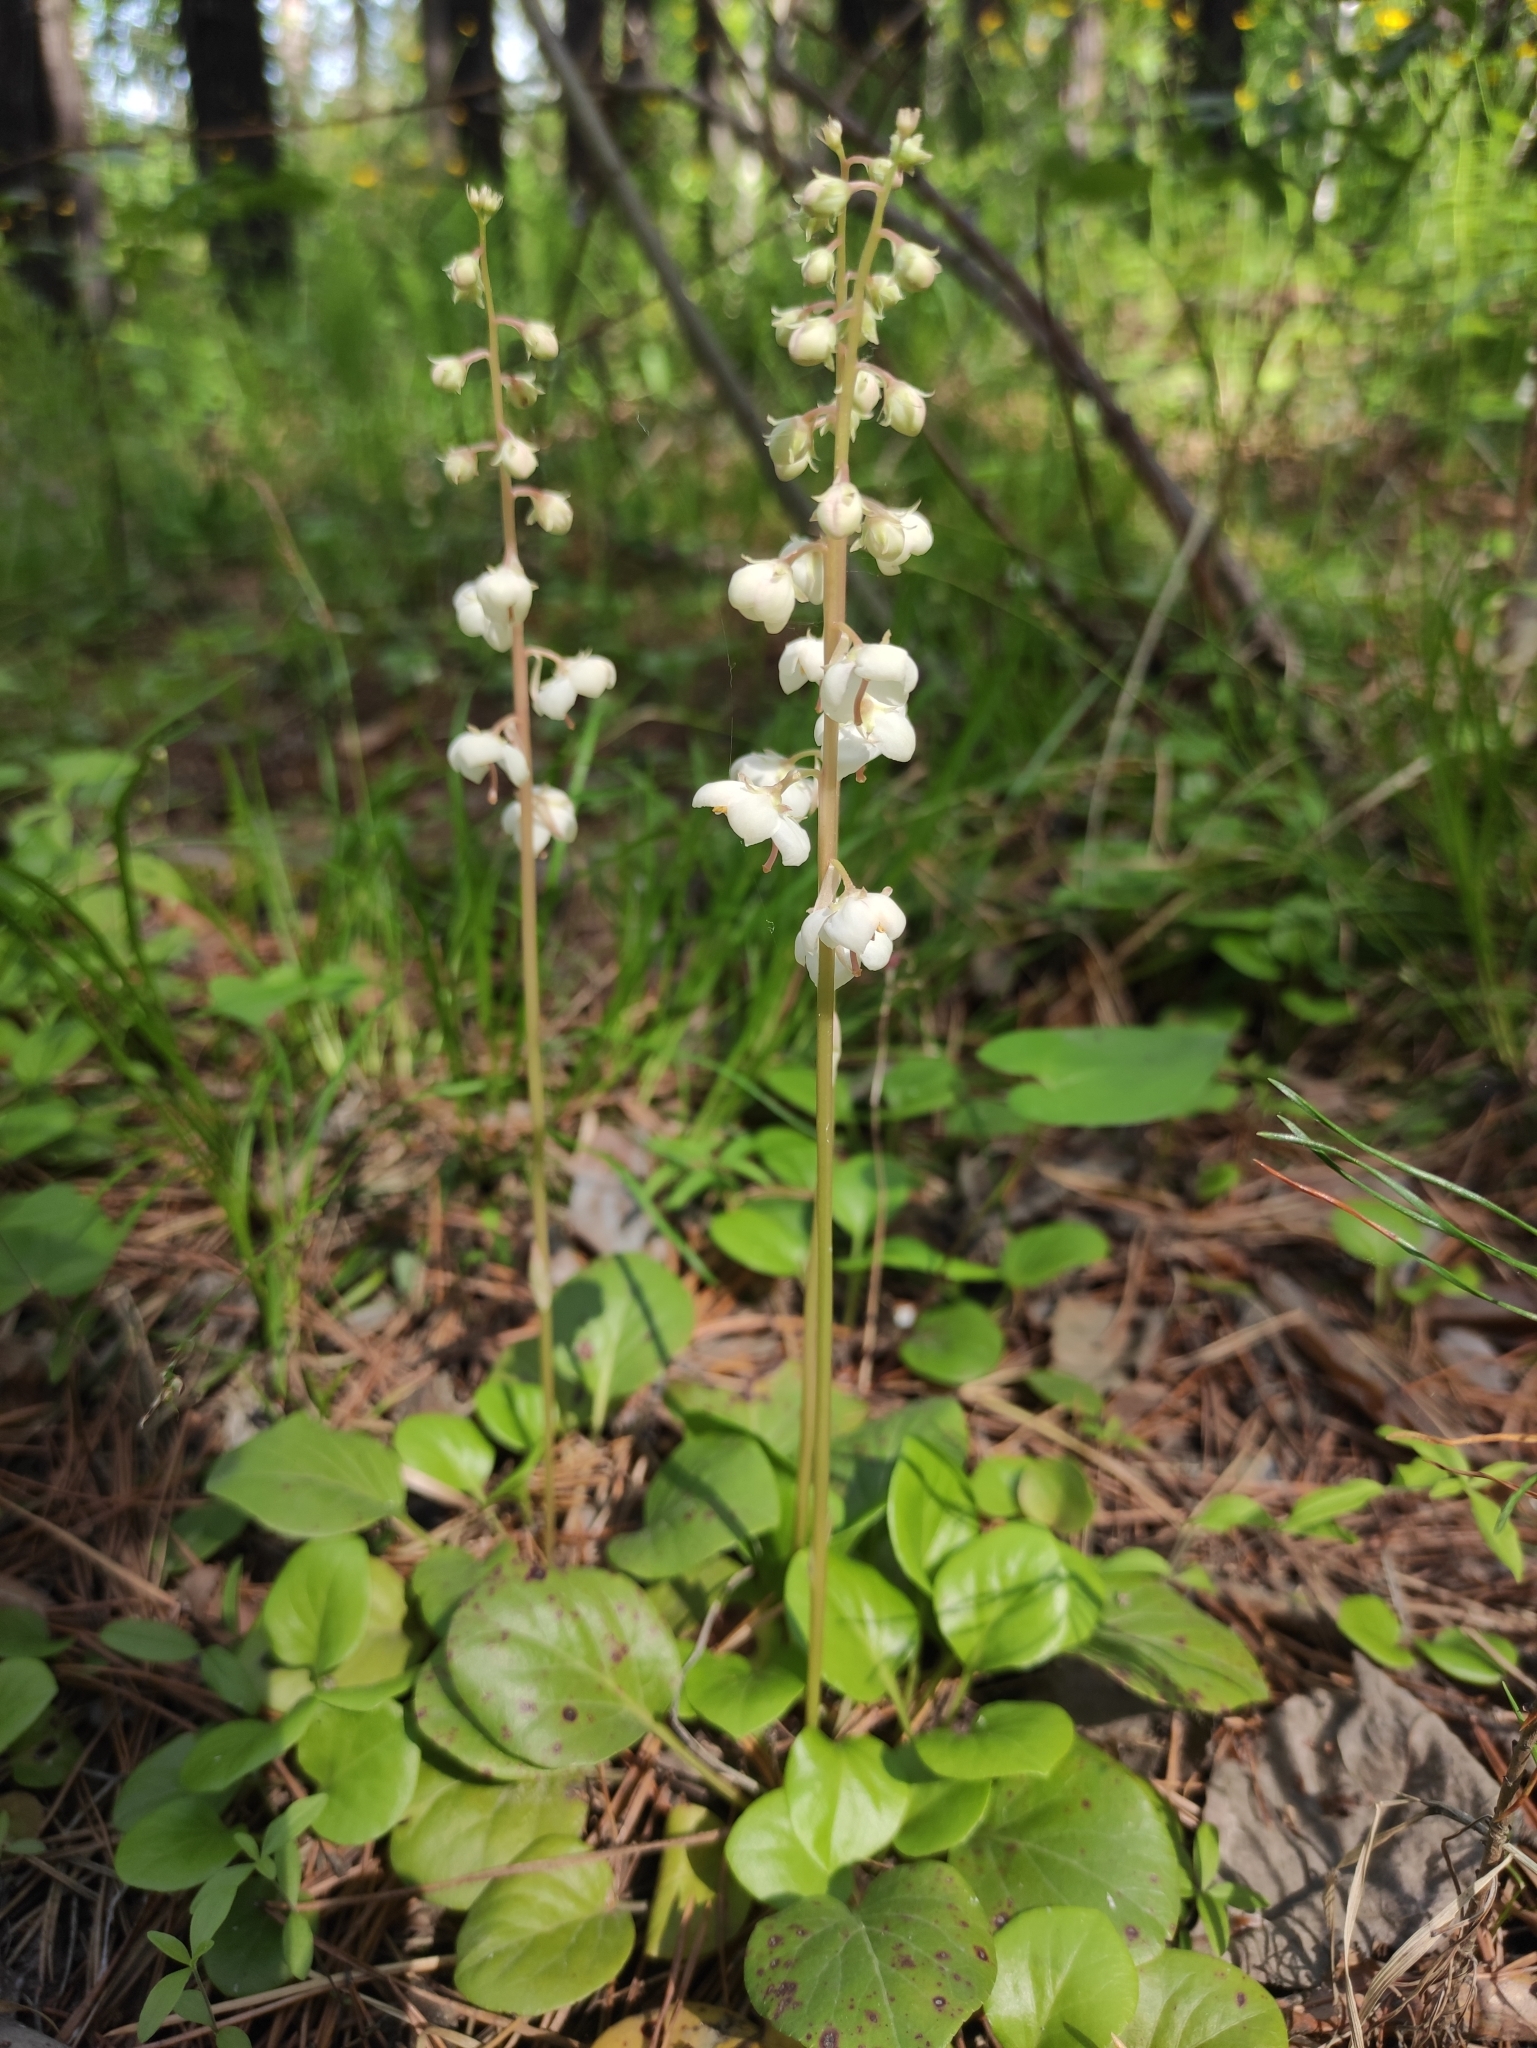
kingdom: Plantae
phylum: Tracheophyta
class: Magnoliopsida
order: Ericales
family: Ericaceae
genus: Pyrola
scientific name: Pyrola rotundifolia
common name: Round-leaved wintergreen
